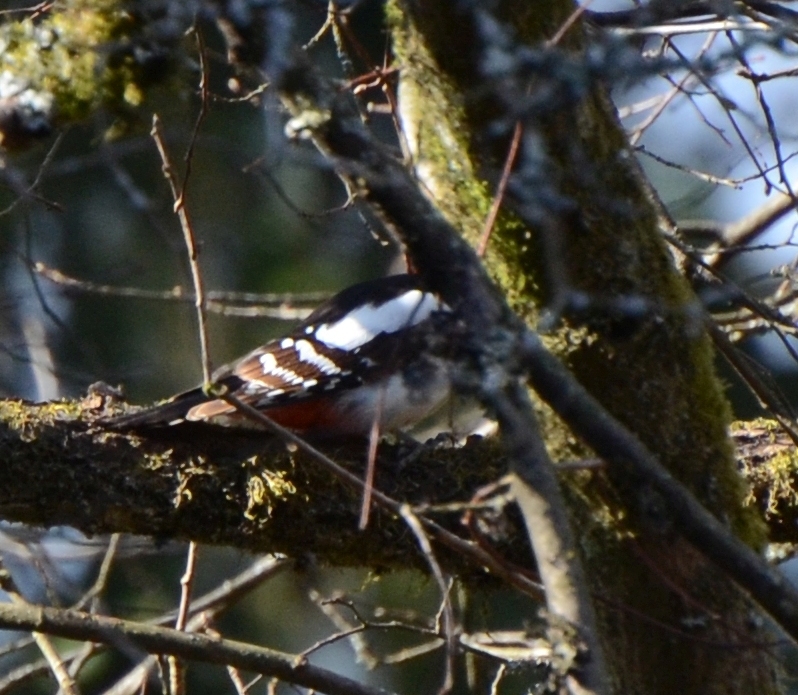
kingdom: Animalia
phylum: Chordata
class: Aves
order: Piciformes
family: Picidae
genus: Dendrocopos
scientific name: Dendrocopos major
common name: Great spotted woodpecker
